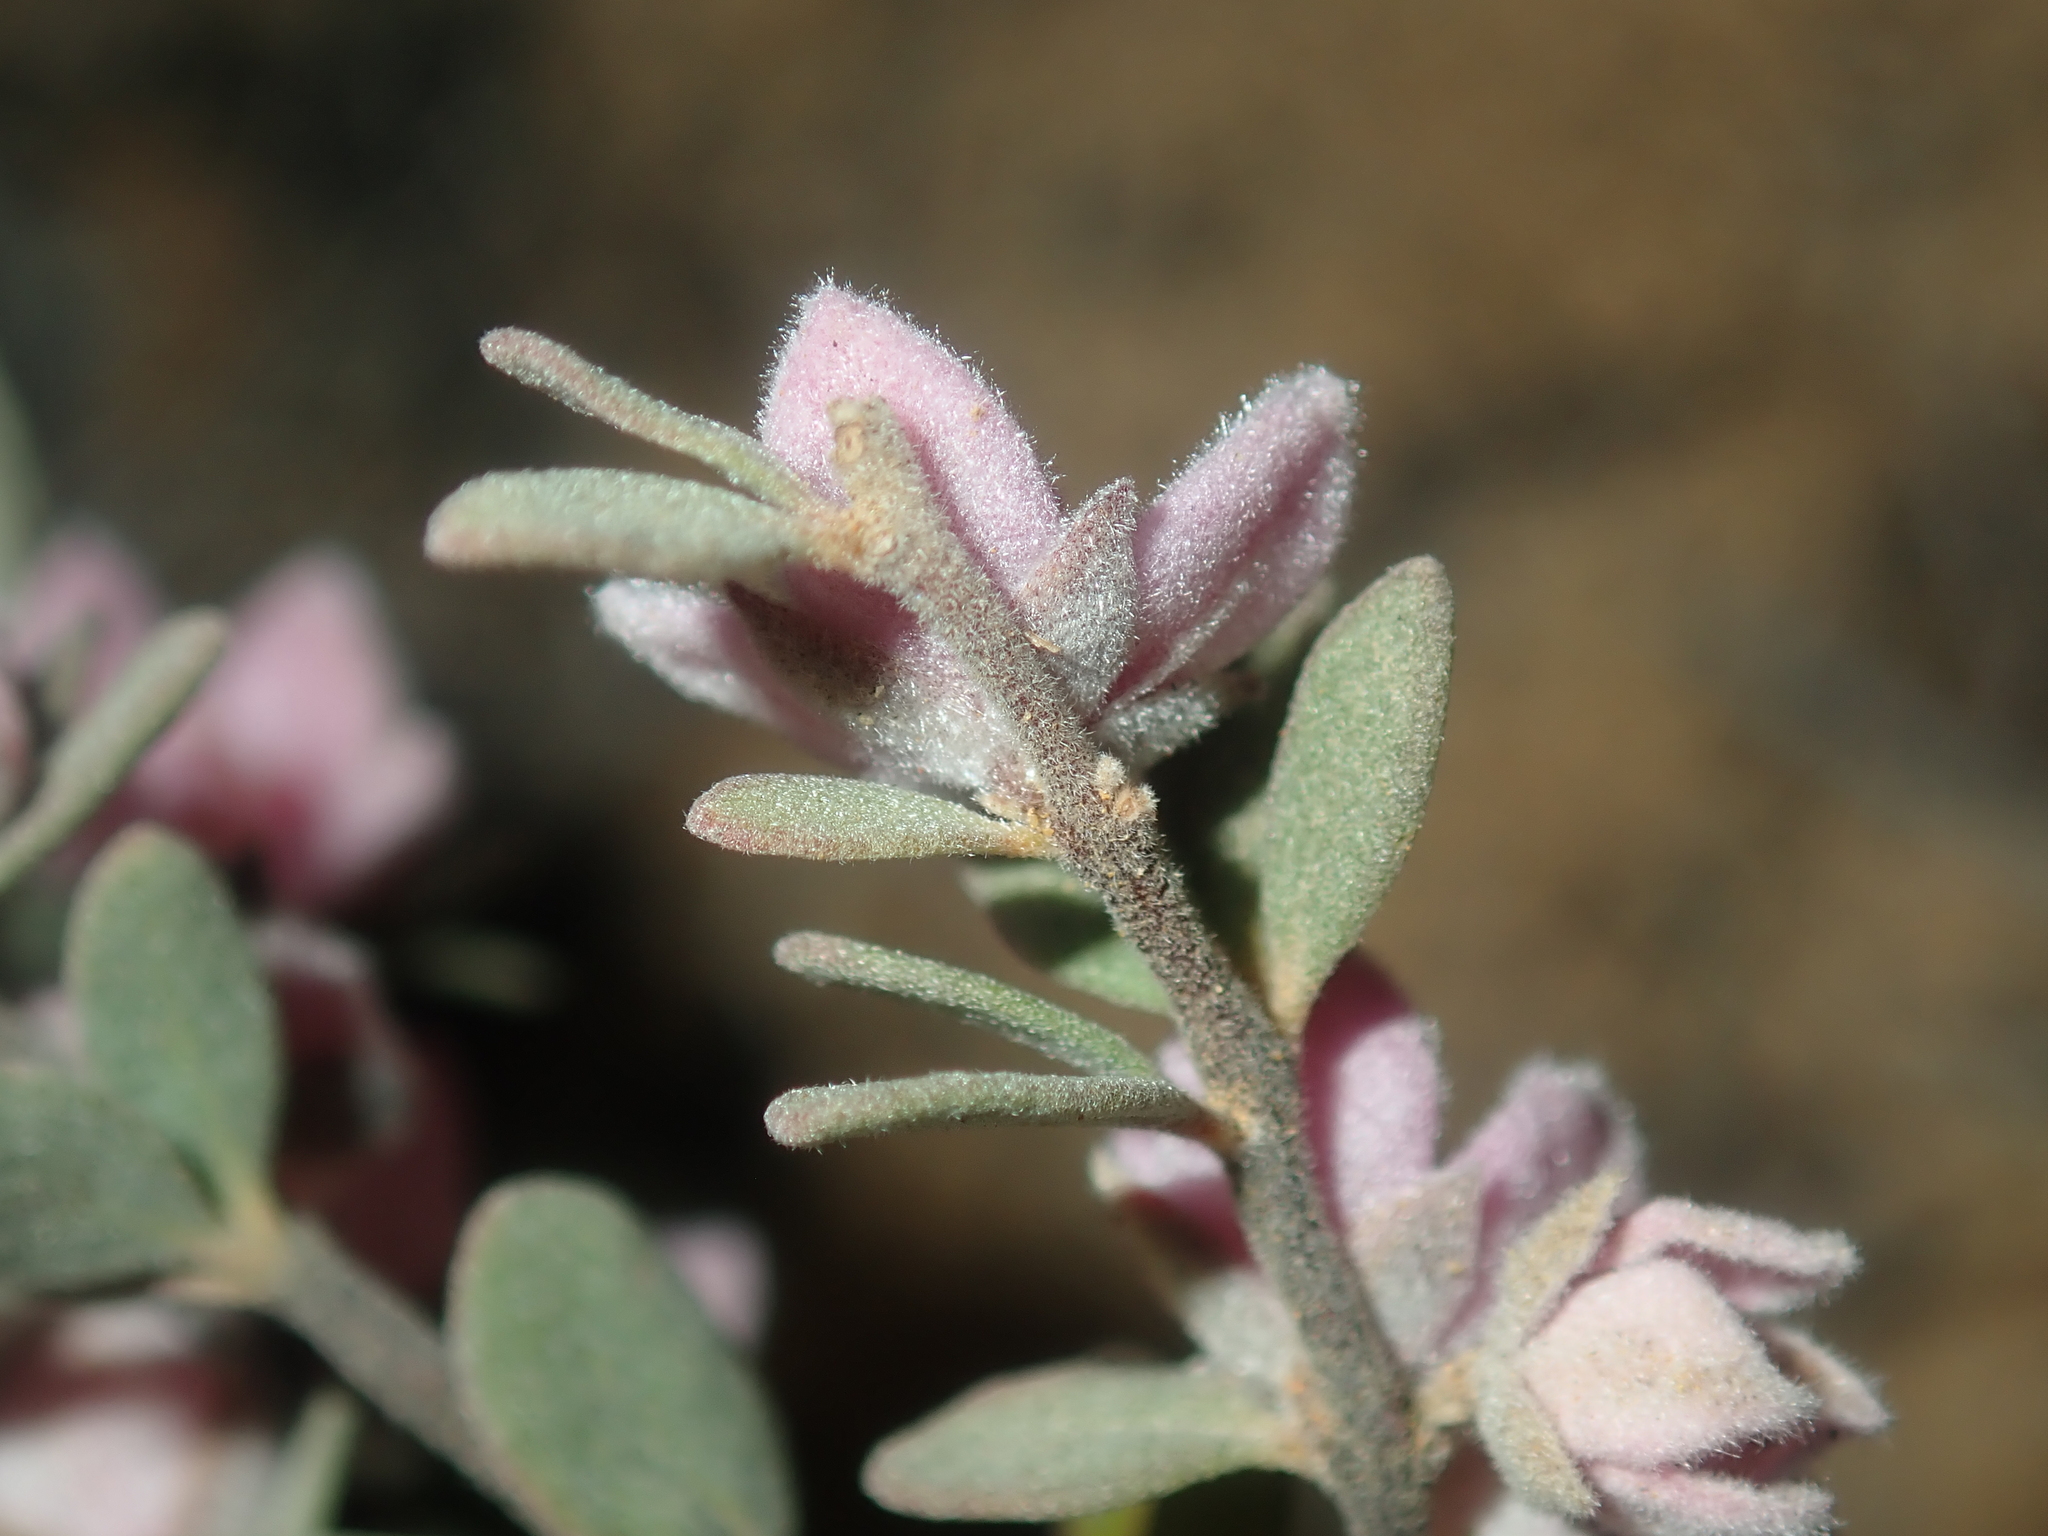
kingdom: Plantae
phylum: Tracheophyta
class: Magnoliopsida
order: Sapindales
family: Rutaceae
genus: Boronia
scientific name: Boronia ternata
